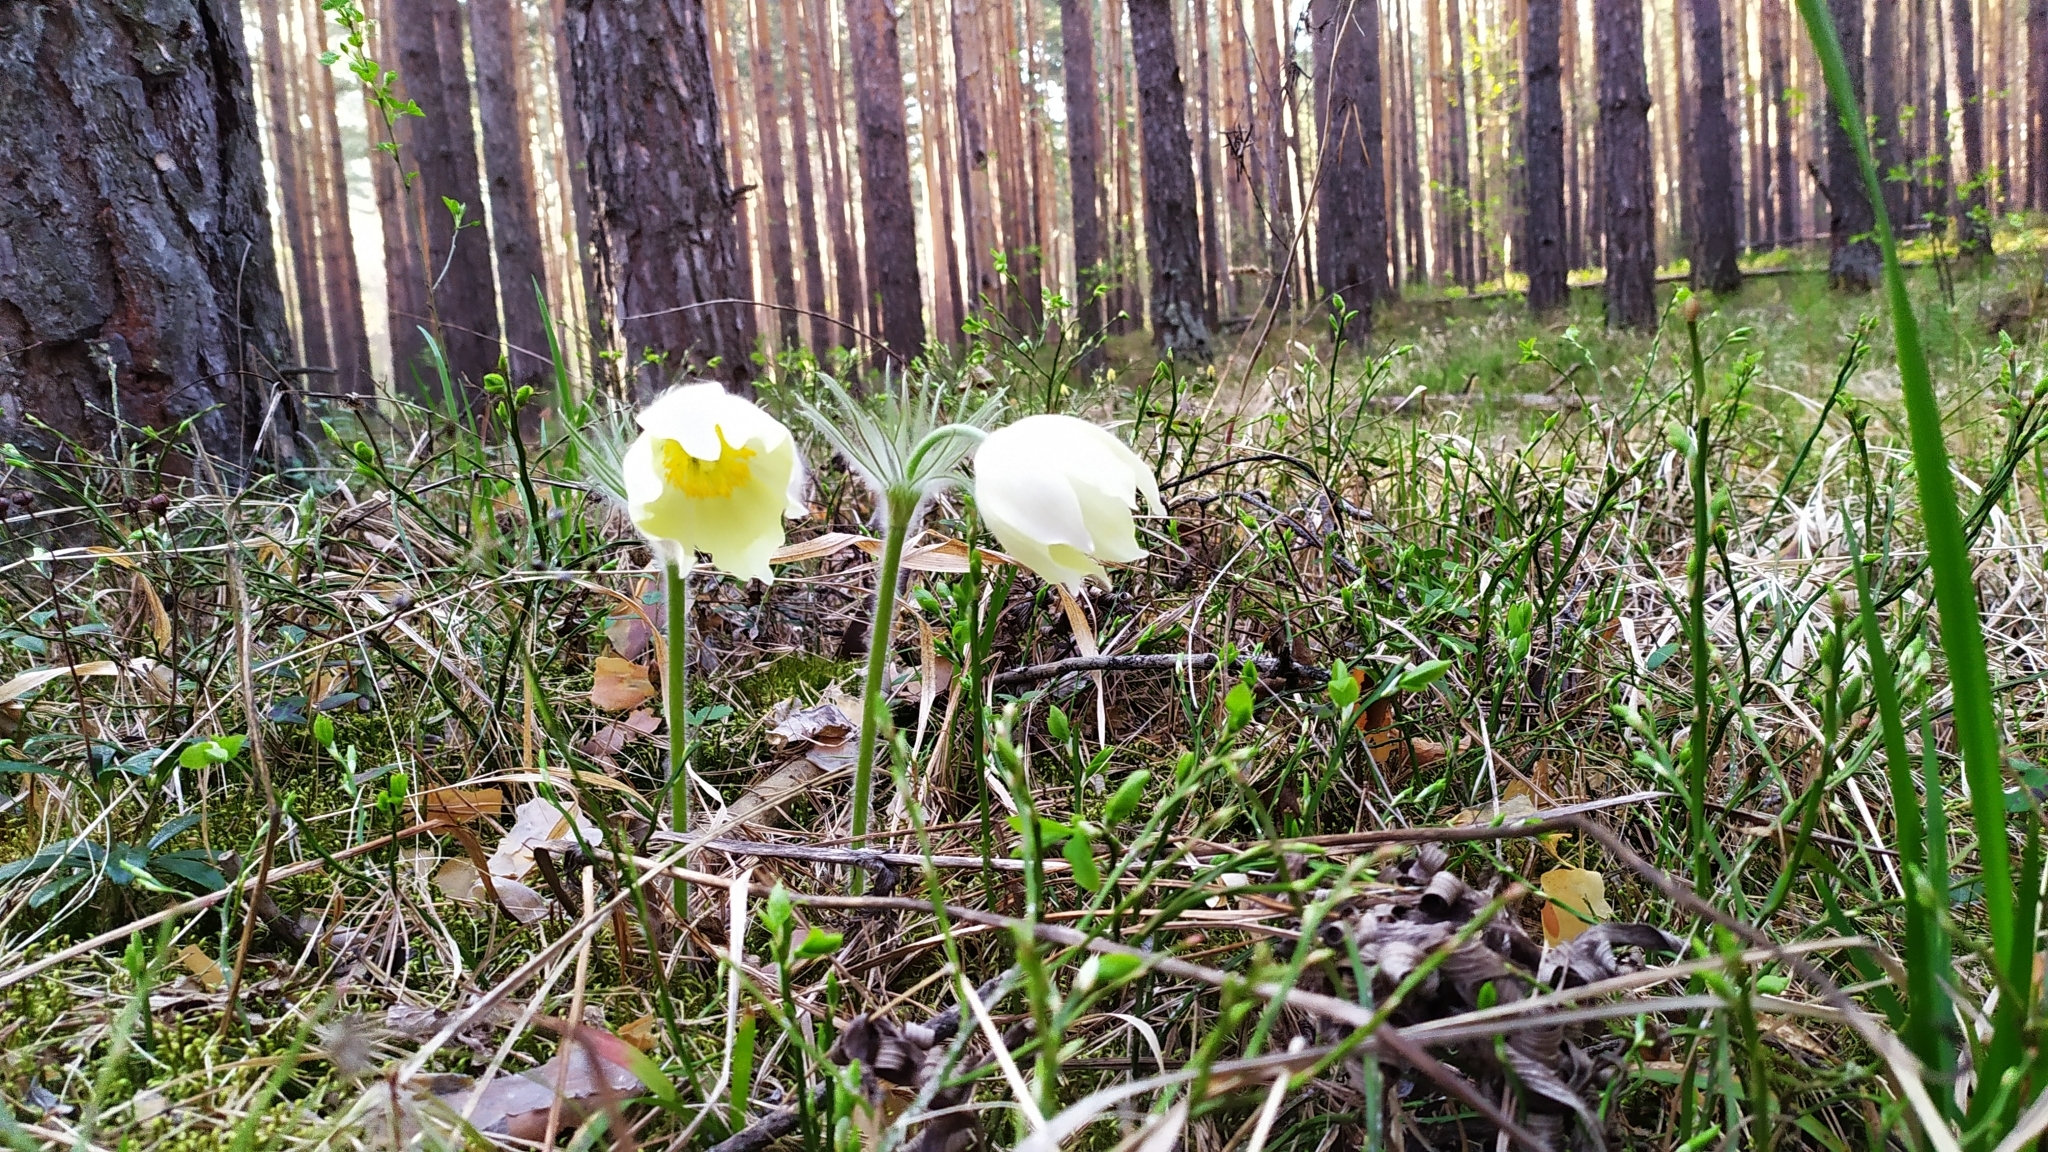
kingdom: Plantae
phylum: Tracheophyta
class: Magnoliopsida
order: Ranunculales
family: Ranunculaceae
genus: Pulsatilla
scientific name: Pulsatilla patens
